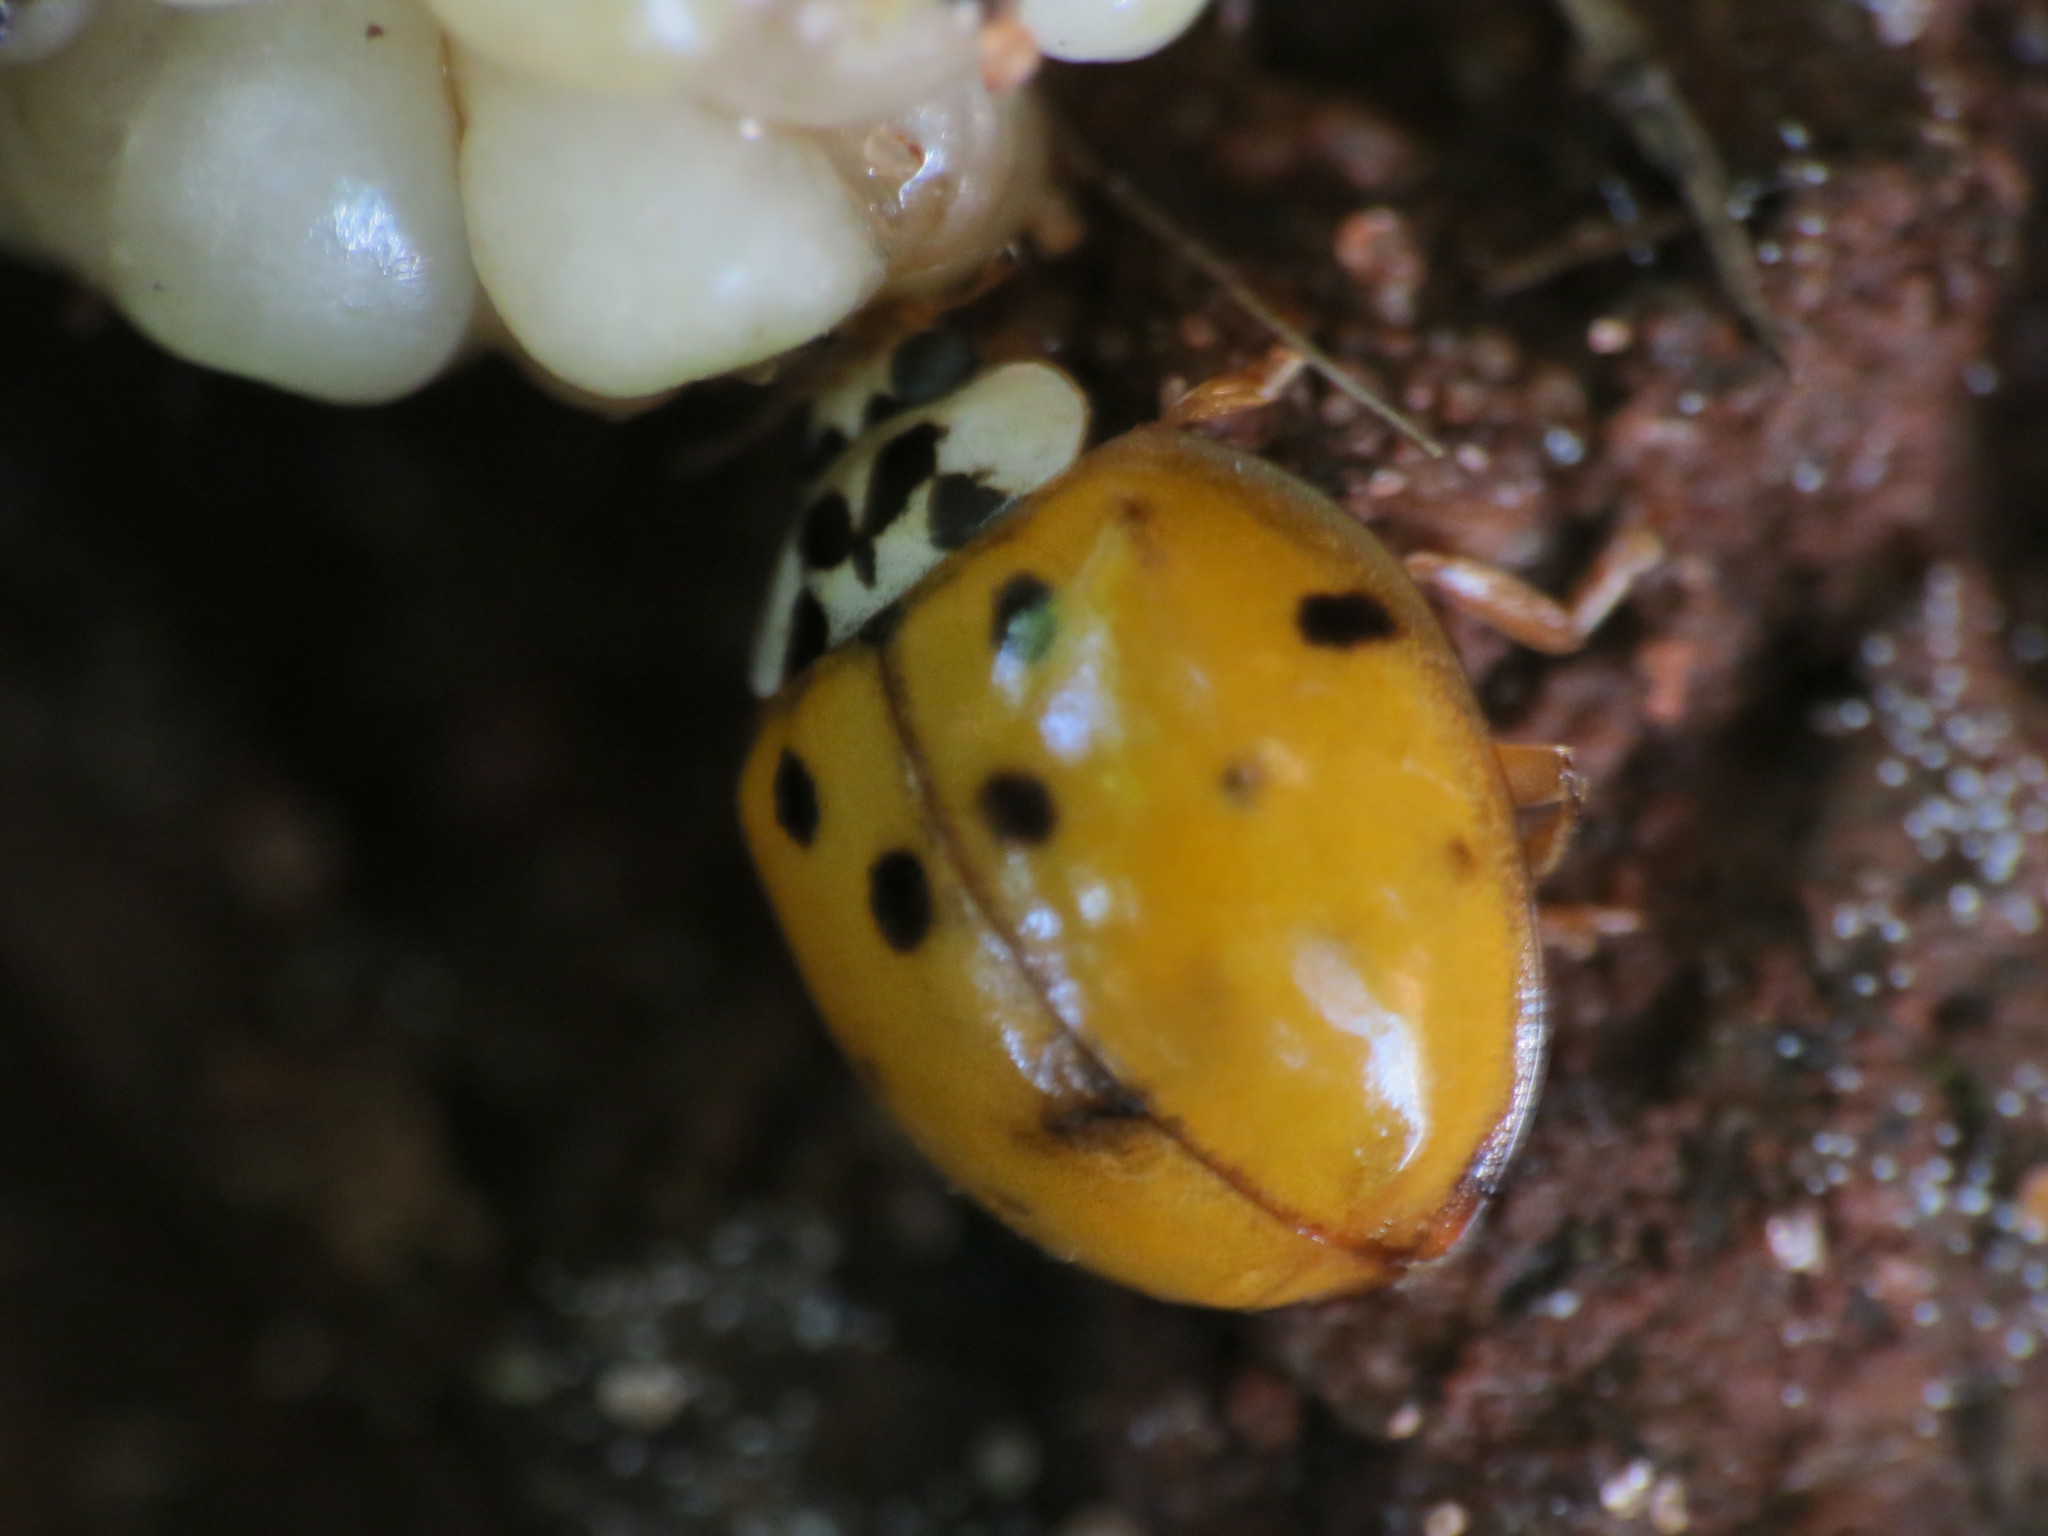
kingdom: Animalia
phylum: Arthropoda
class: Insecta
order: Coleoptera
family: Coccinellidae
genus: Harmonia
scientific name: Harmonia axyridis
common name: Harlequin ladybird
